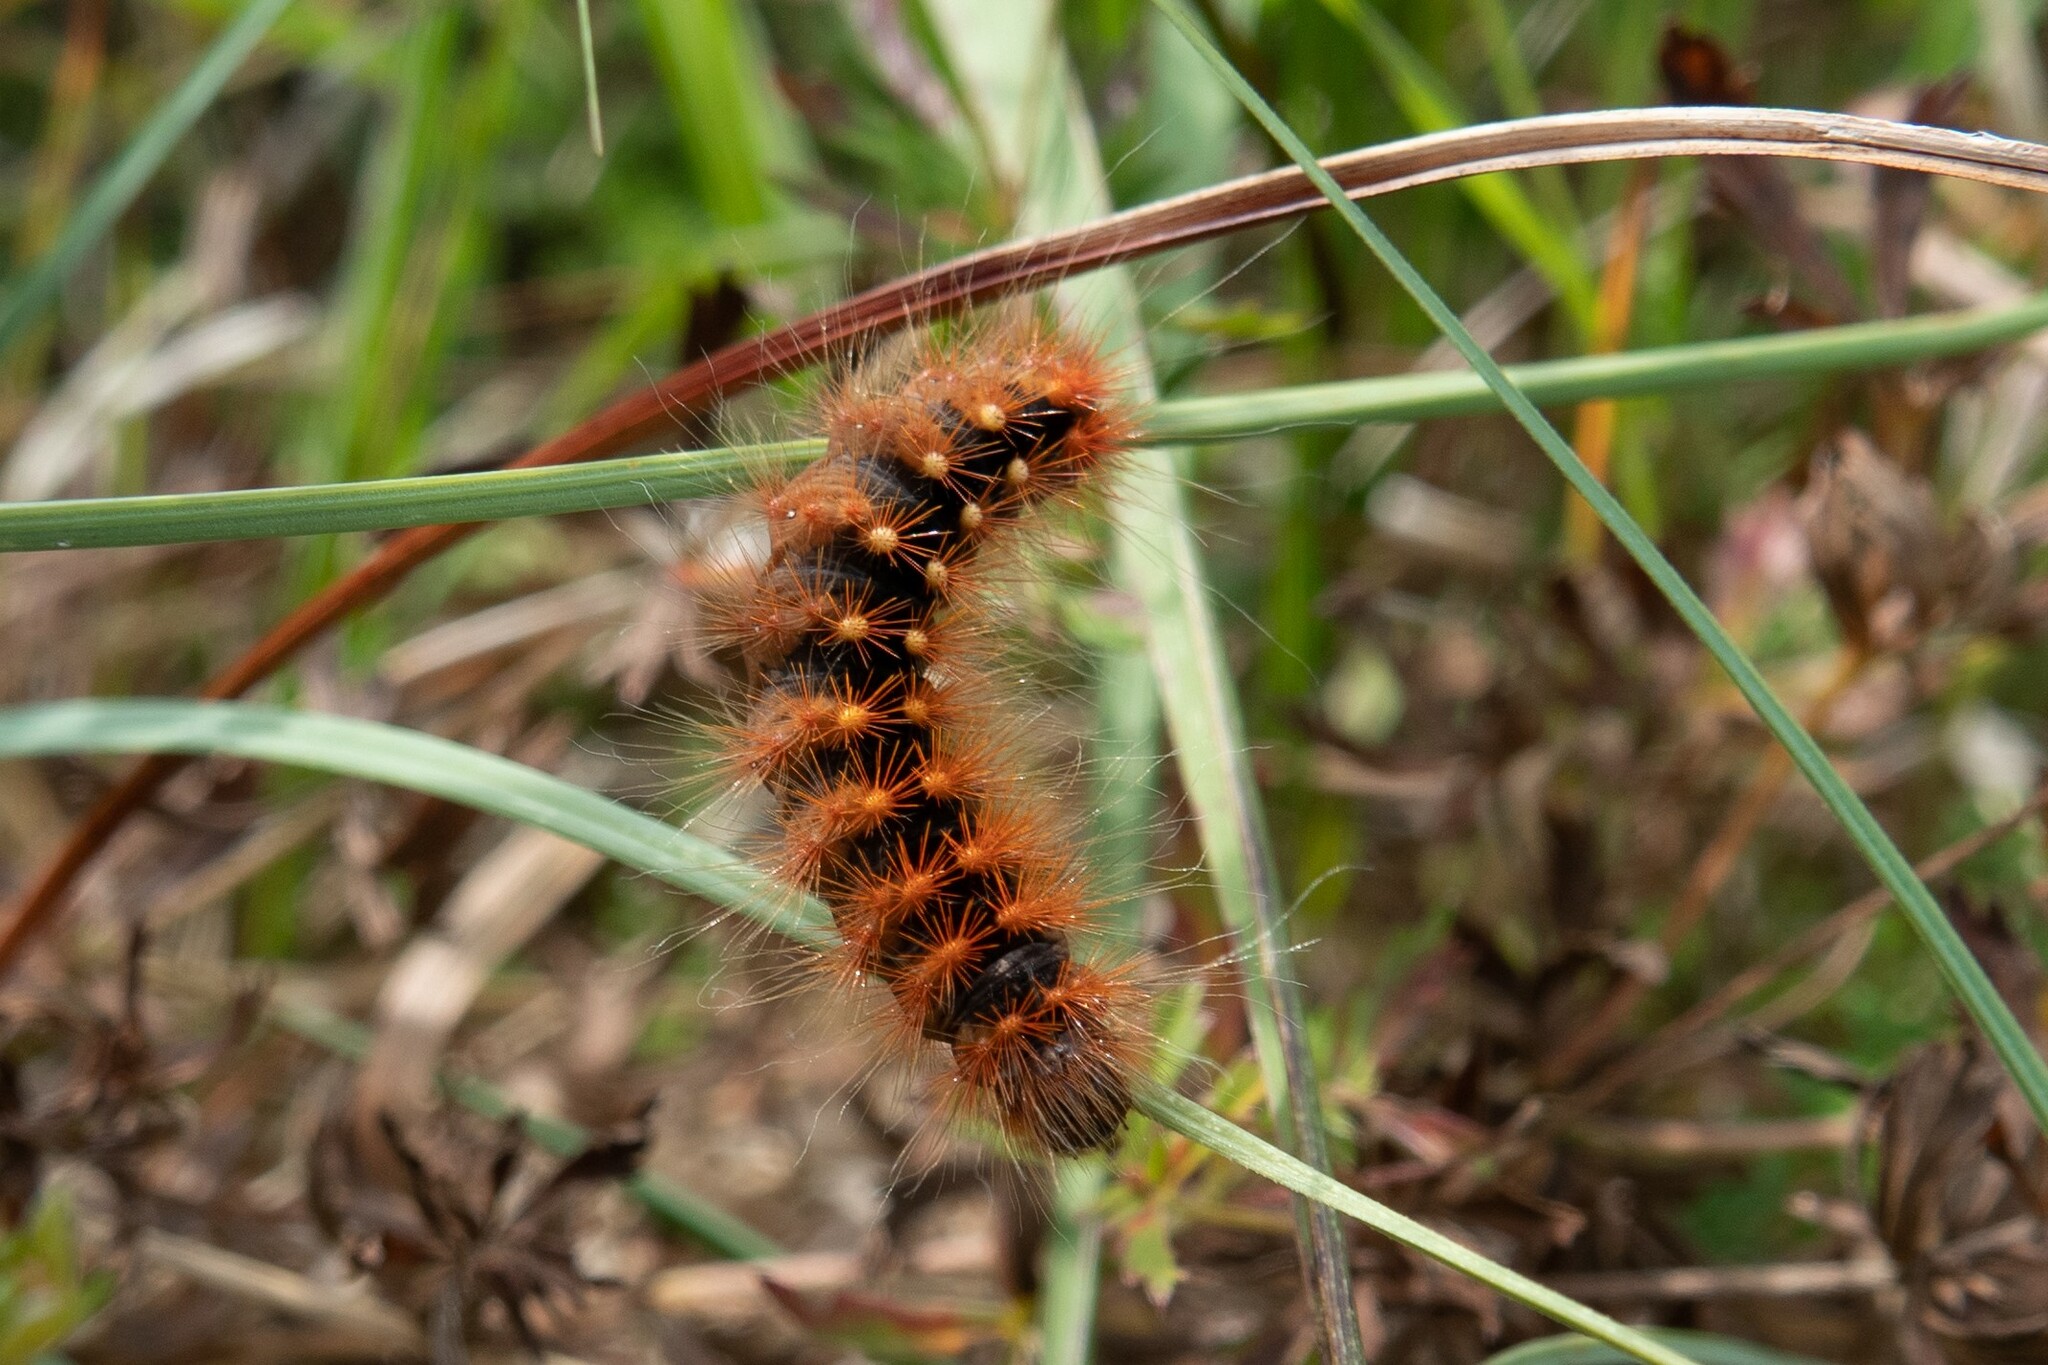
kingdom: Animalia
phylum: Arthropoda
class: Insecta
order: Lepidoptera
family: Noctuidae
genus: Acronicta
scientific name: Acronicta auricoma
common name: Scarce dagger
